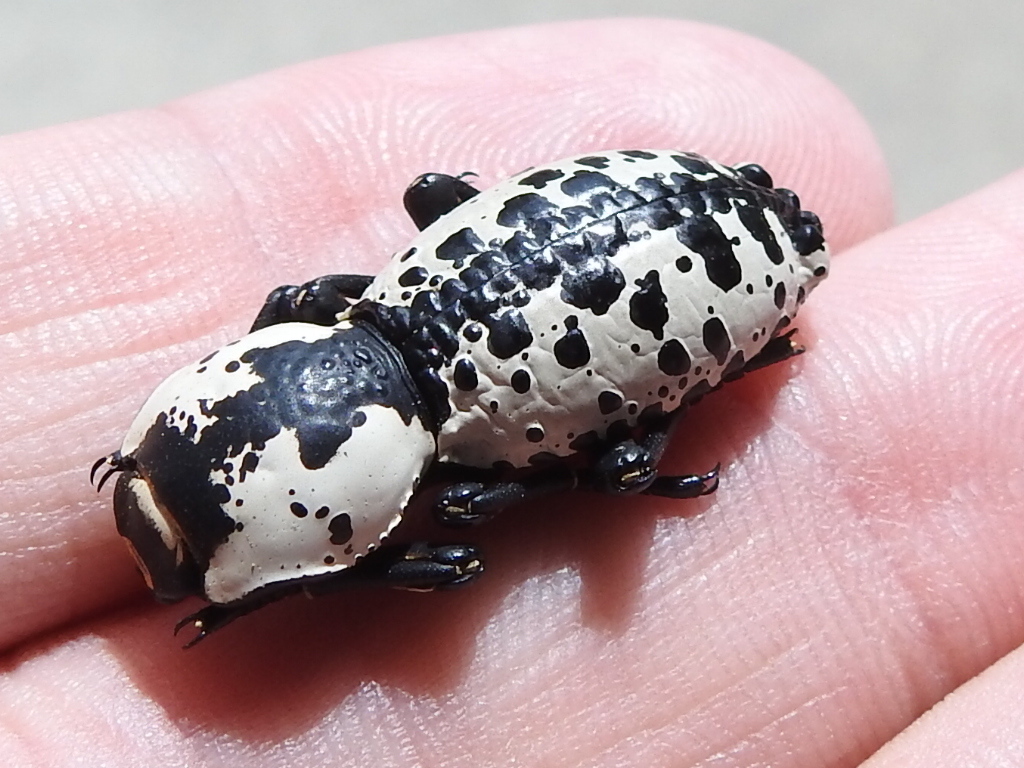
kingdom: Animalia
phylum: Arthropoda
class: Insecta
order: Coleoptera
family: Zopheridae
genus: Zopherus
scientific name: Zopherus nodulosus
